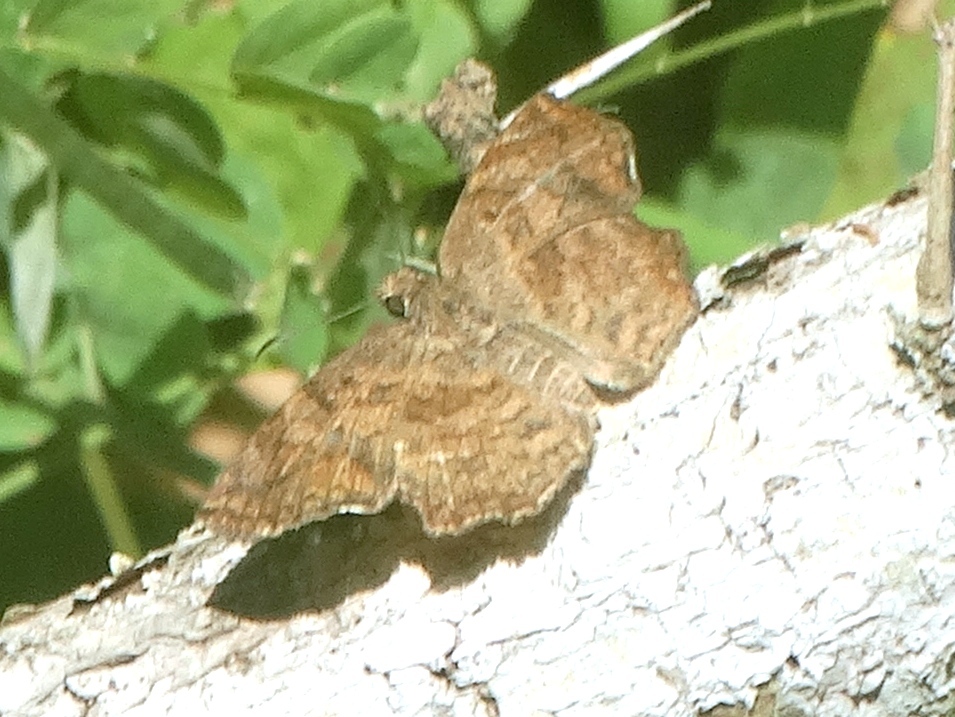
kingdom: Animalia
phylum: Arthropoda
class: Insecta
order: Lepidoptera
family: Hesperiidae
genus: Antigonus
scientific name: Antigonus erosus
